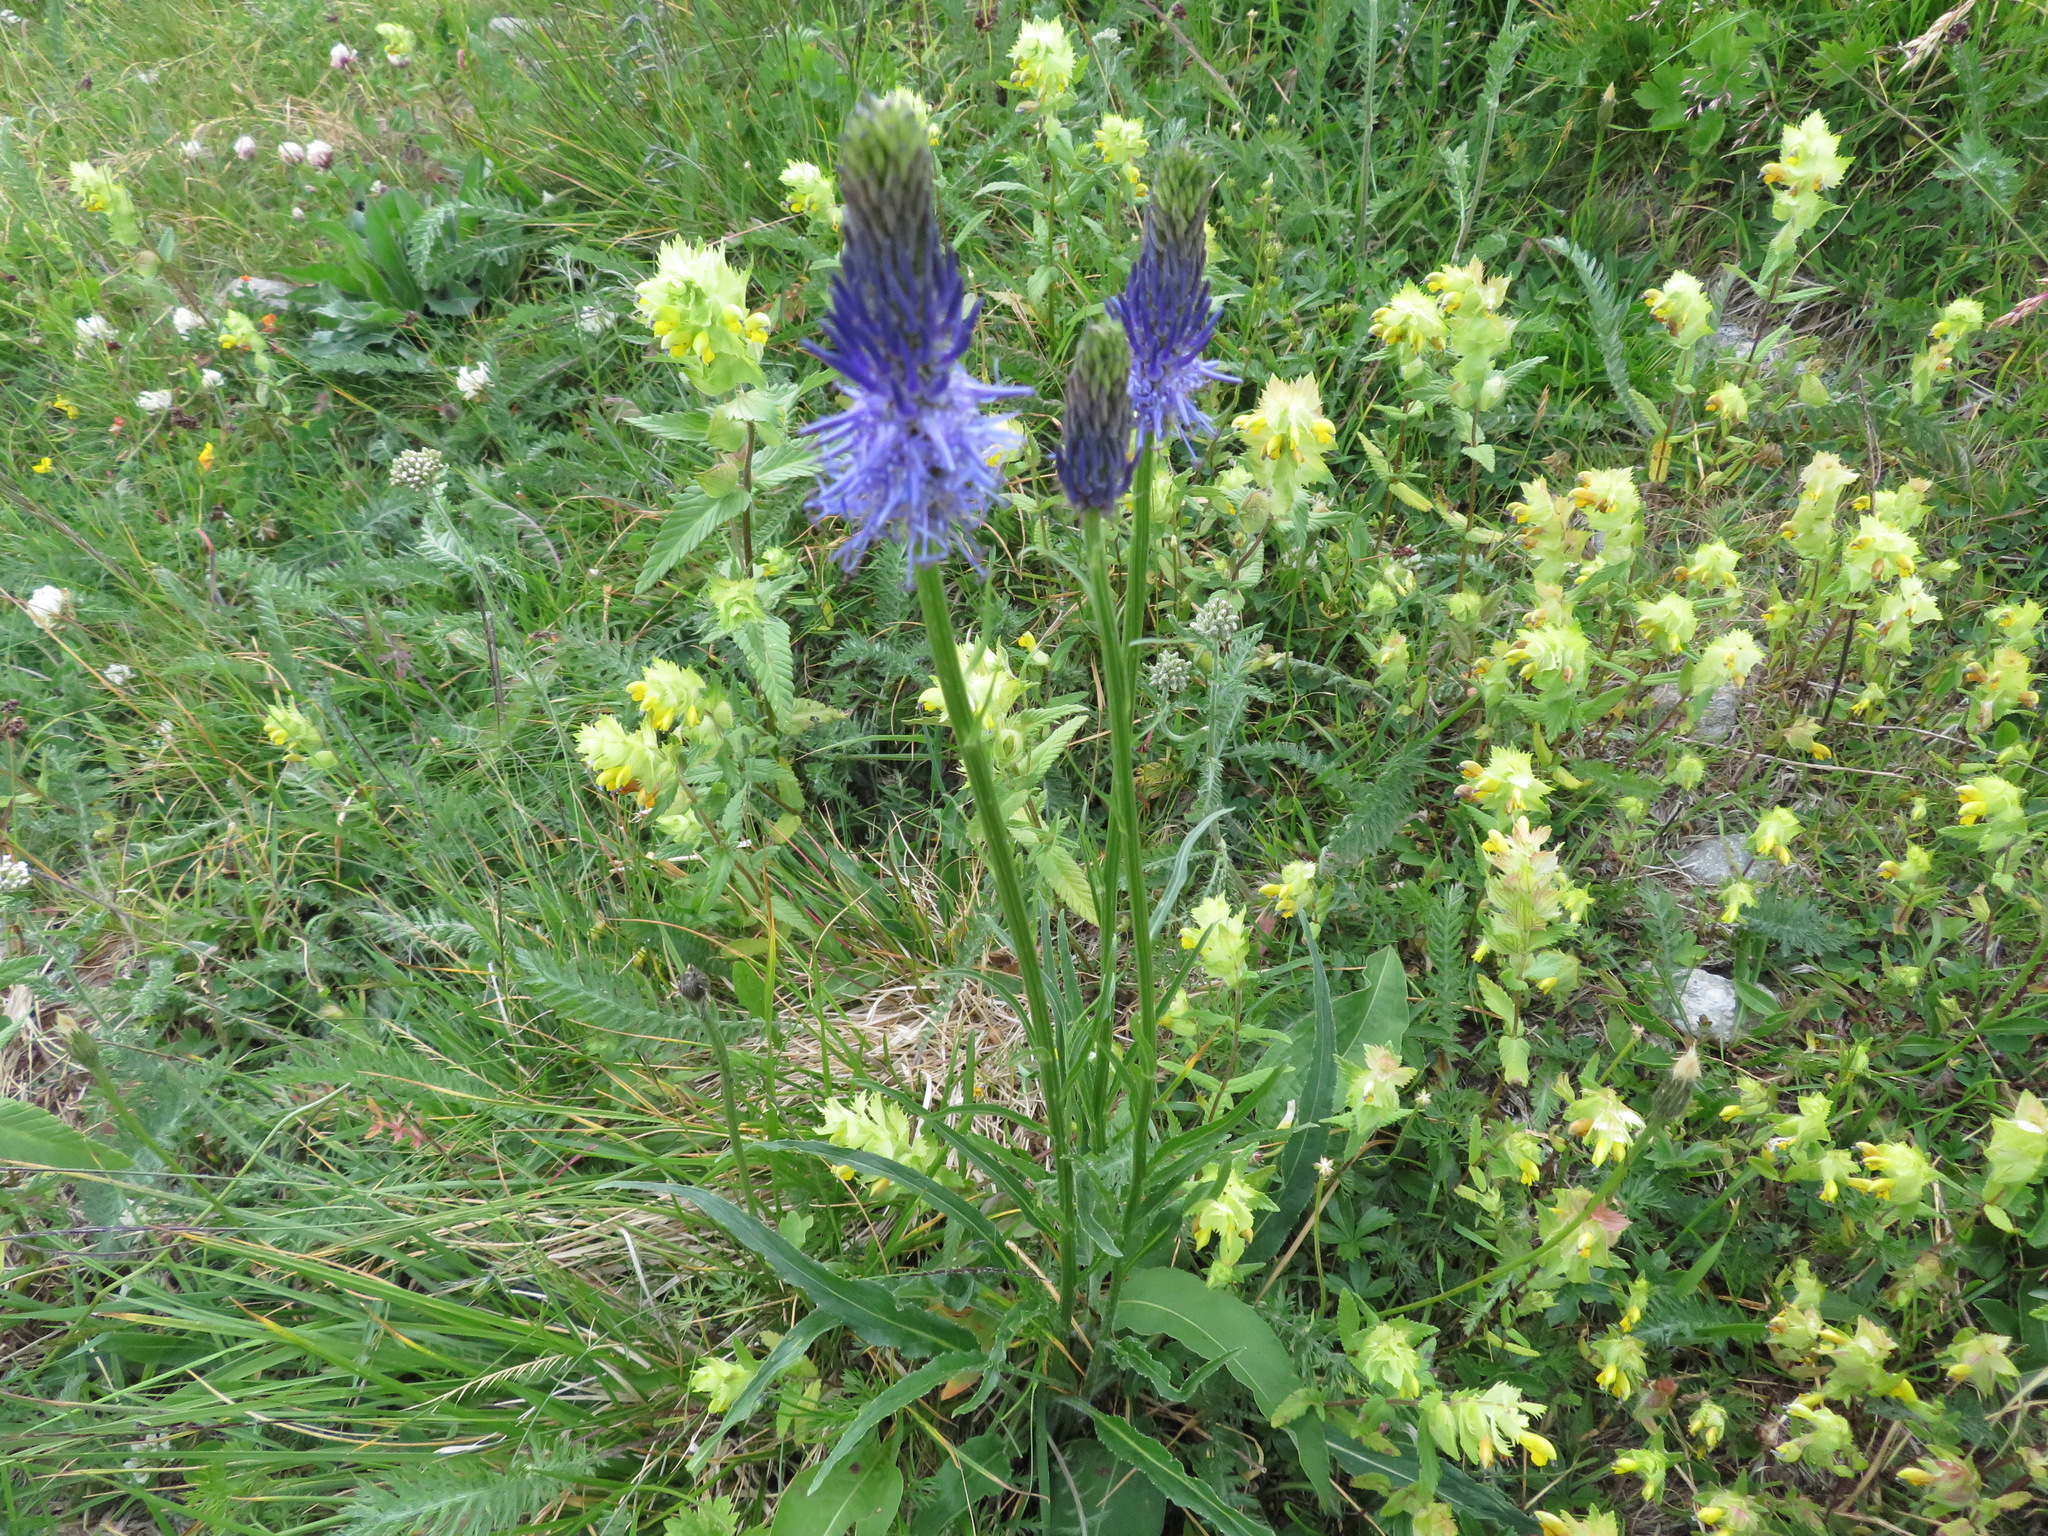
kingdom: Plantae
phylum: Tracheophyta
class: Magnoliopsida
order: Asterales
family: Campanulaceae
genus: Phyteuma
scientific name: Phyteuma betonicifolium
